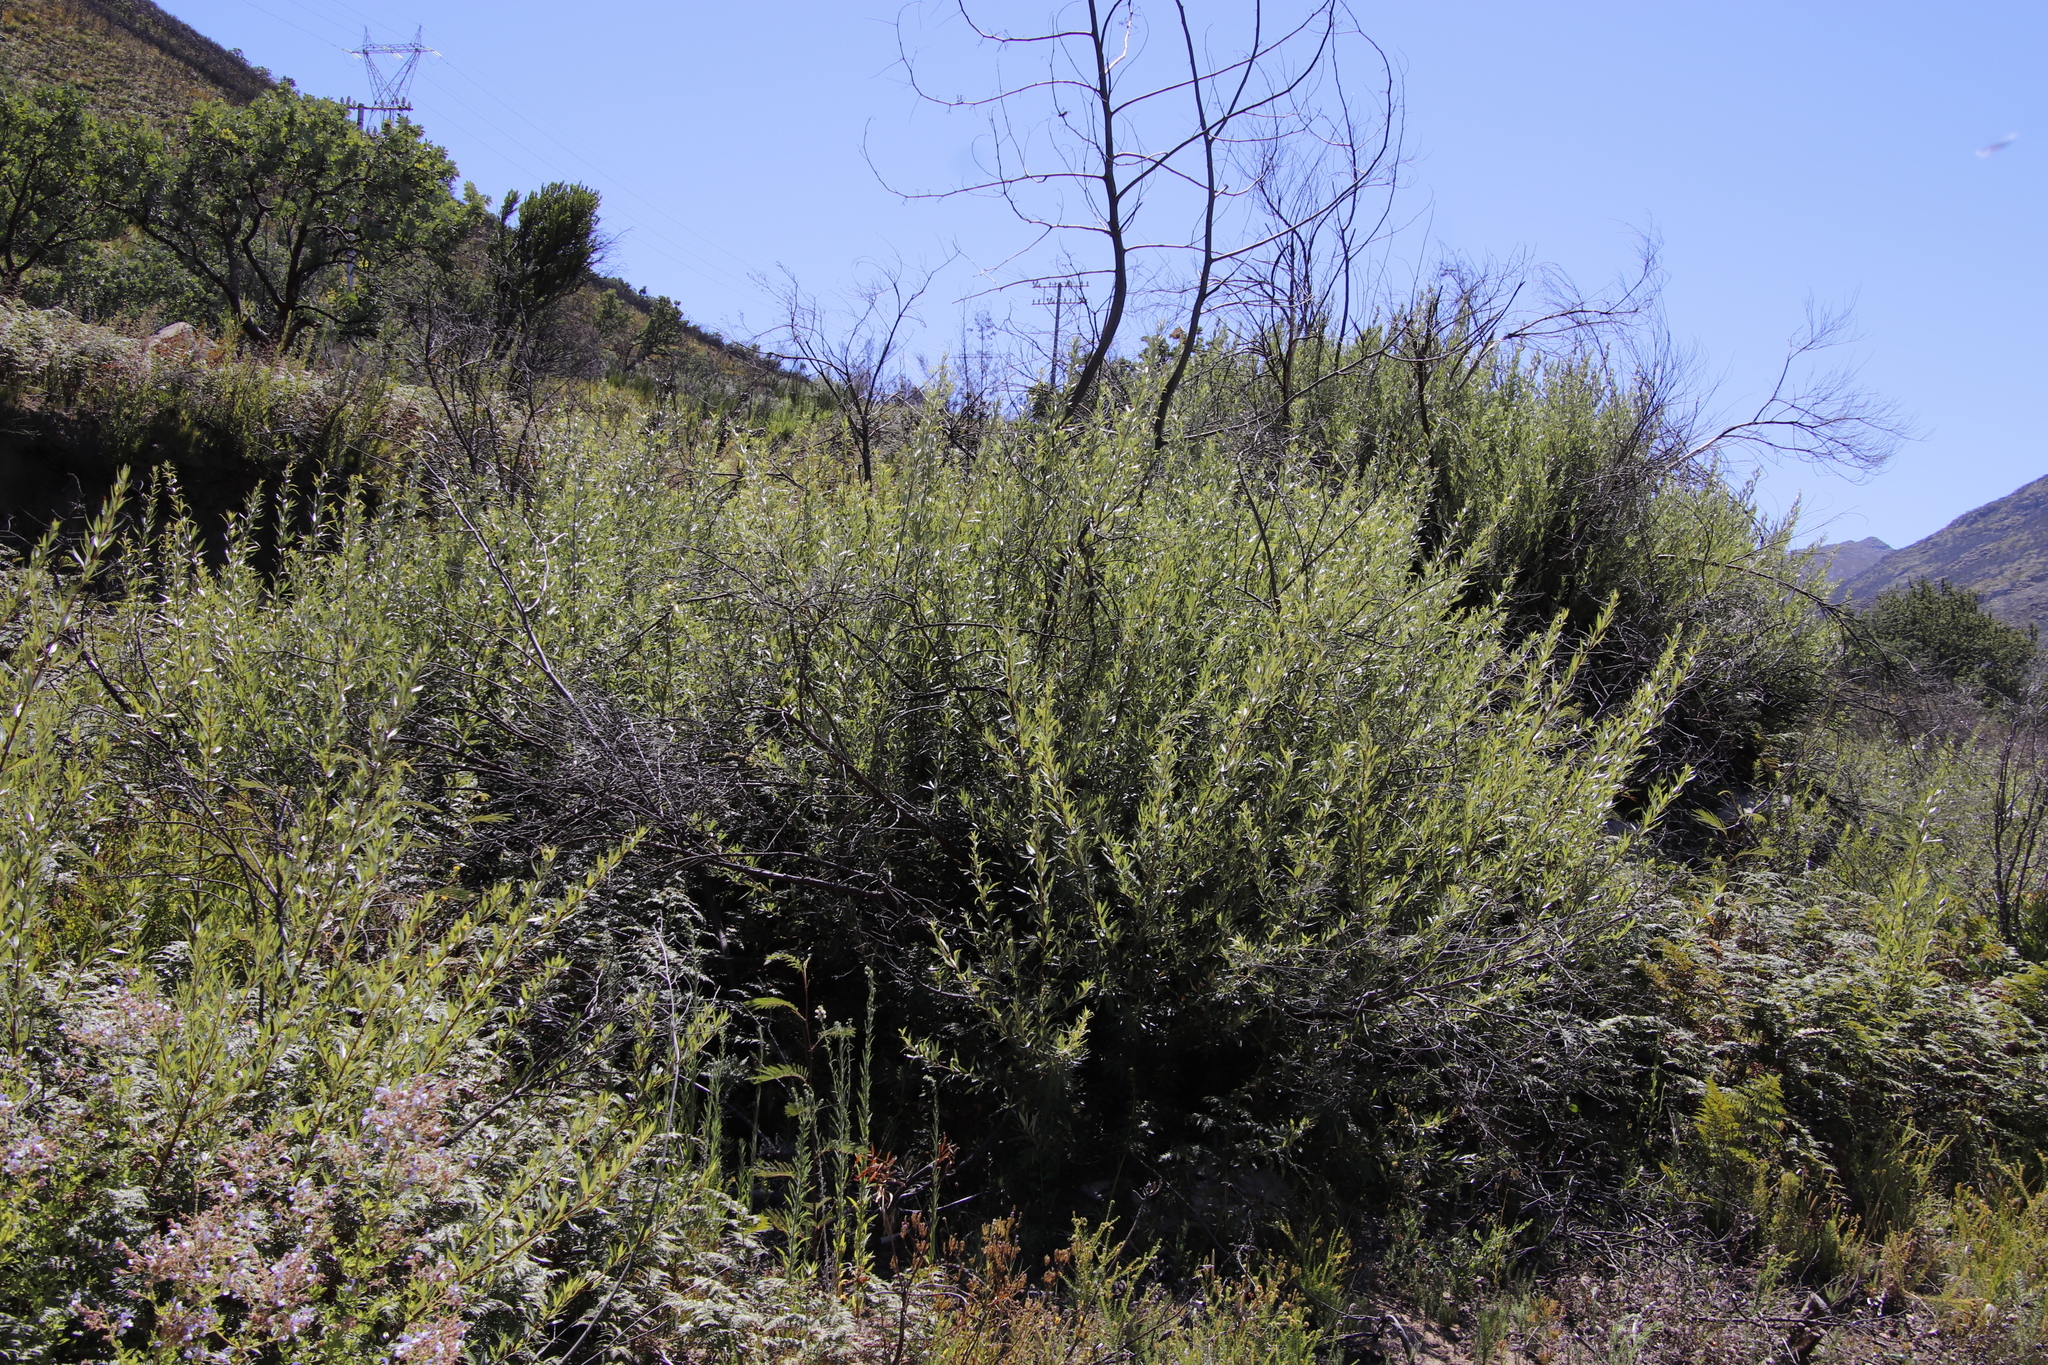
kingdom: Plantae
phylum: Tracheophyta
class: Magnoliopsida
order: Sapindales
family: Anacardiaceae
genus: Searsia
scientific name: Searsia angustifolia
